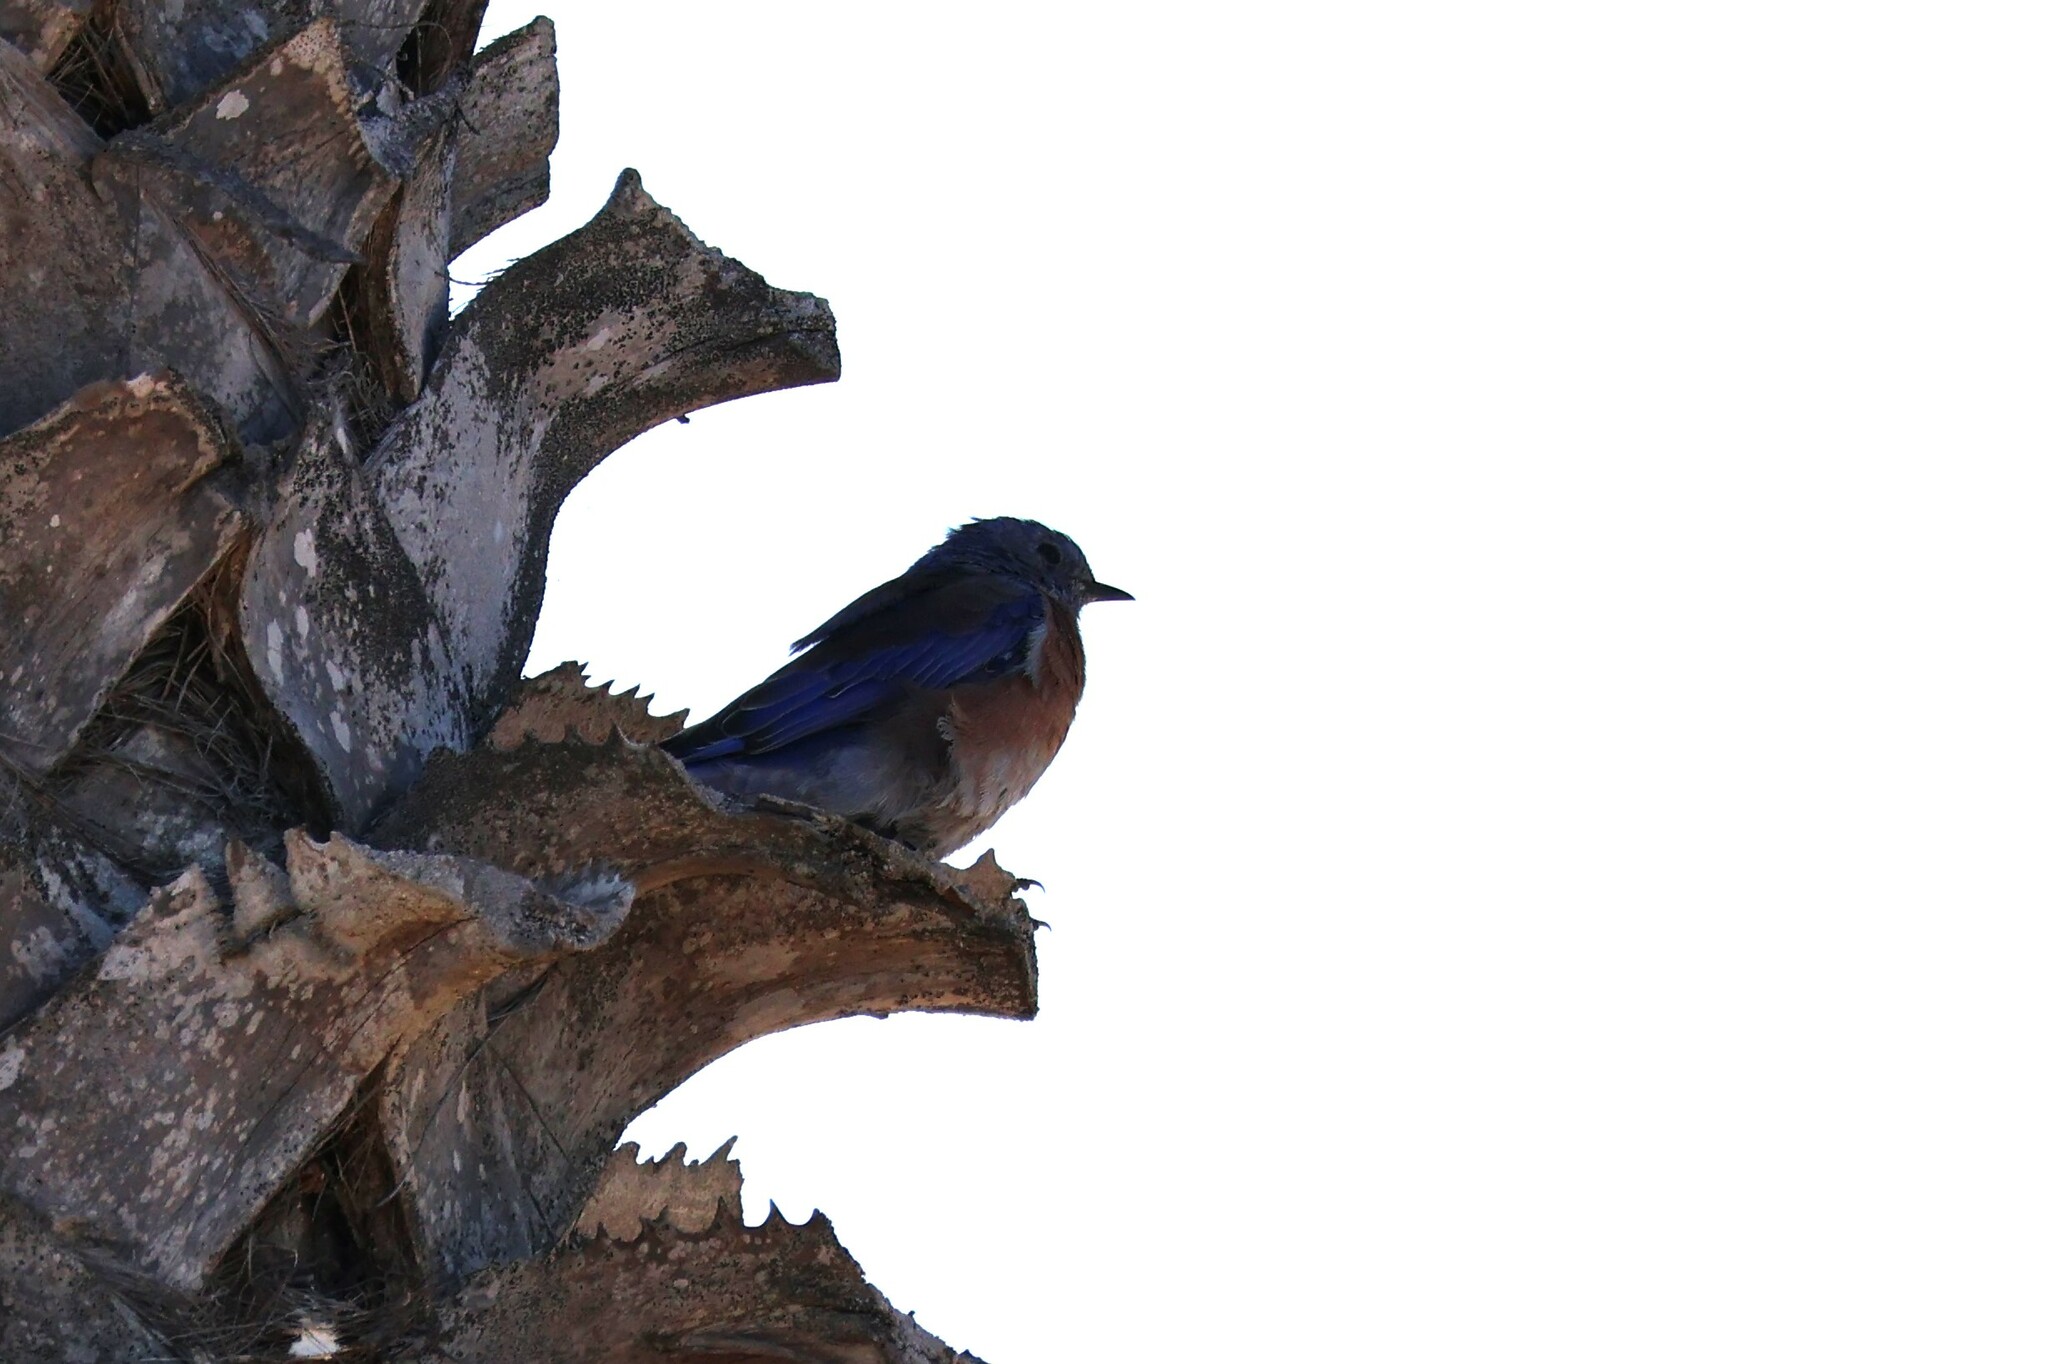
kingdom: Animalia
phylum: Chordata
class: Aves
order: Passeriformes
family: Turdidae
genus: Sialia
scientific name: Sialia mexicana
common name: Western bluebird
